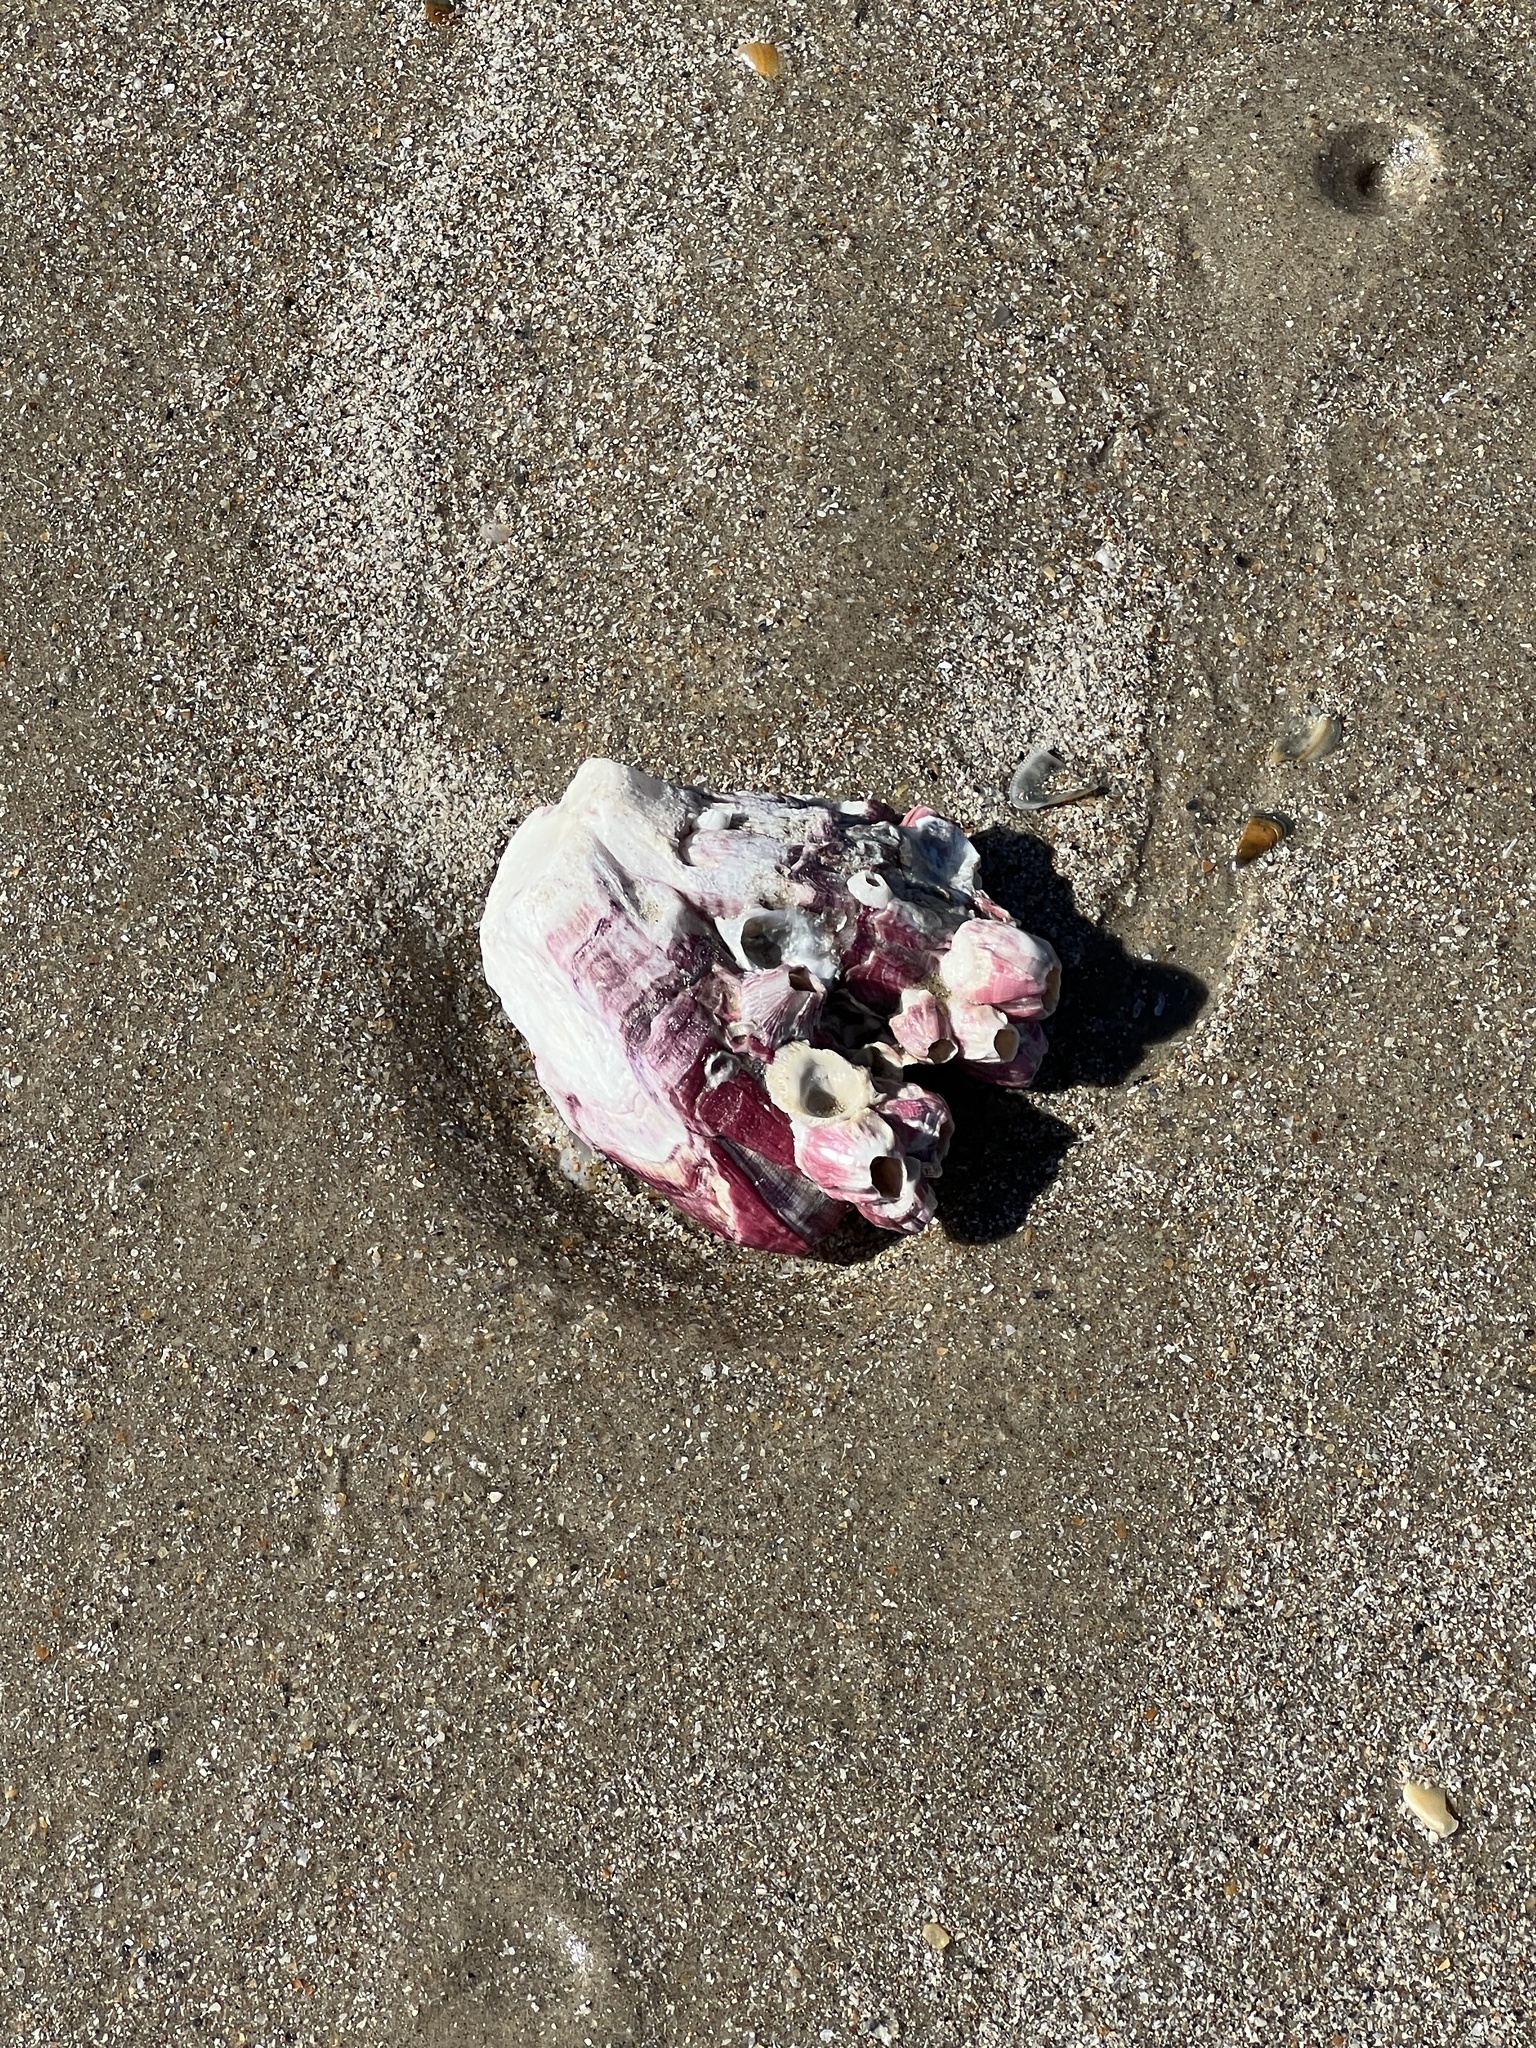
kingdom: Animalia
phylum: Arthropoda
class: Maxillopoda
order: Sessilia
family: Balanidae
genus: Megabalanus
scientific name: Megabalanus tintinnabulum
